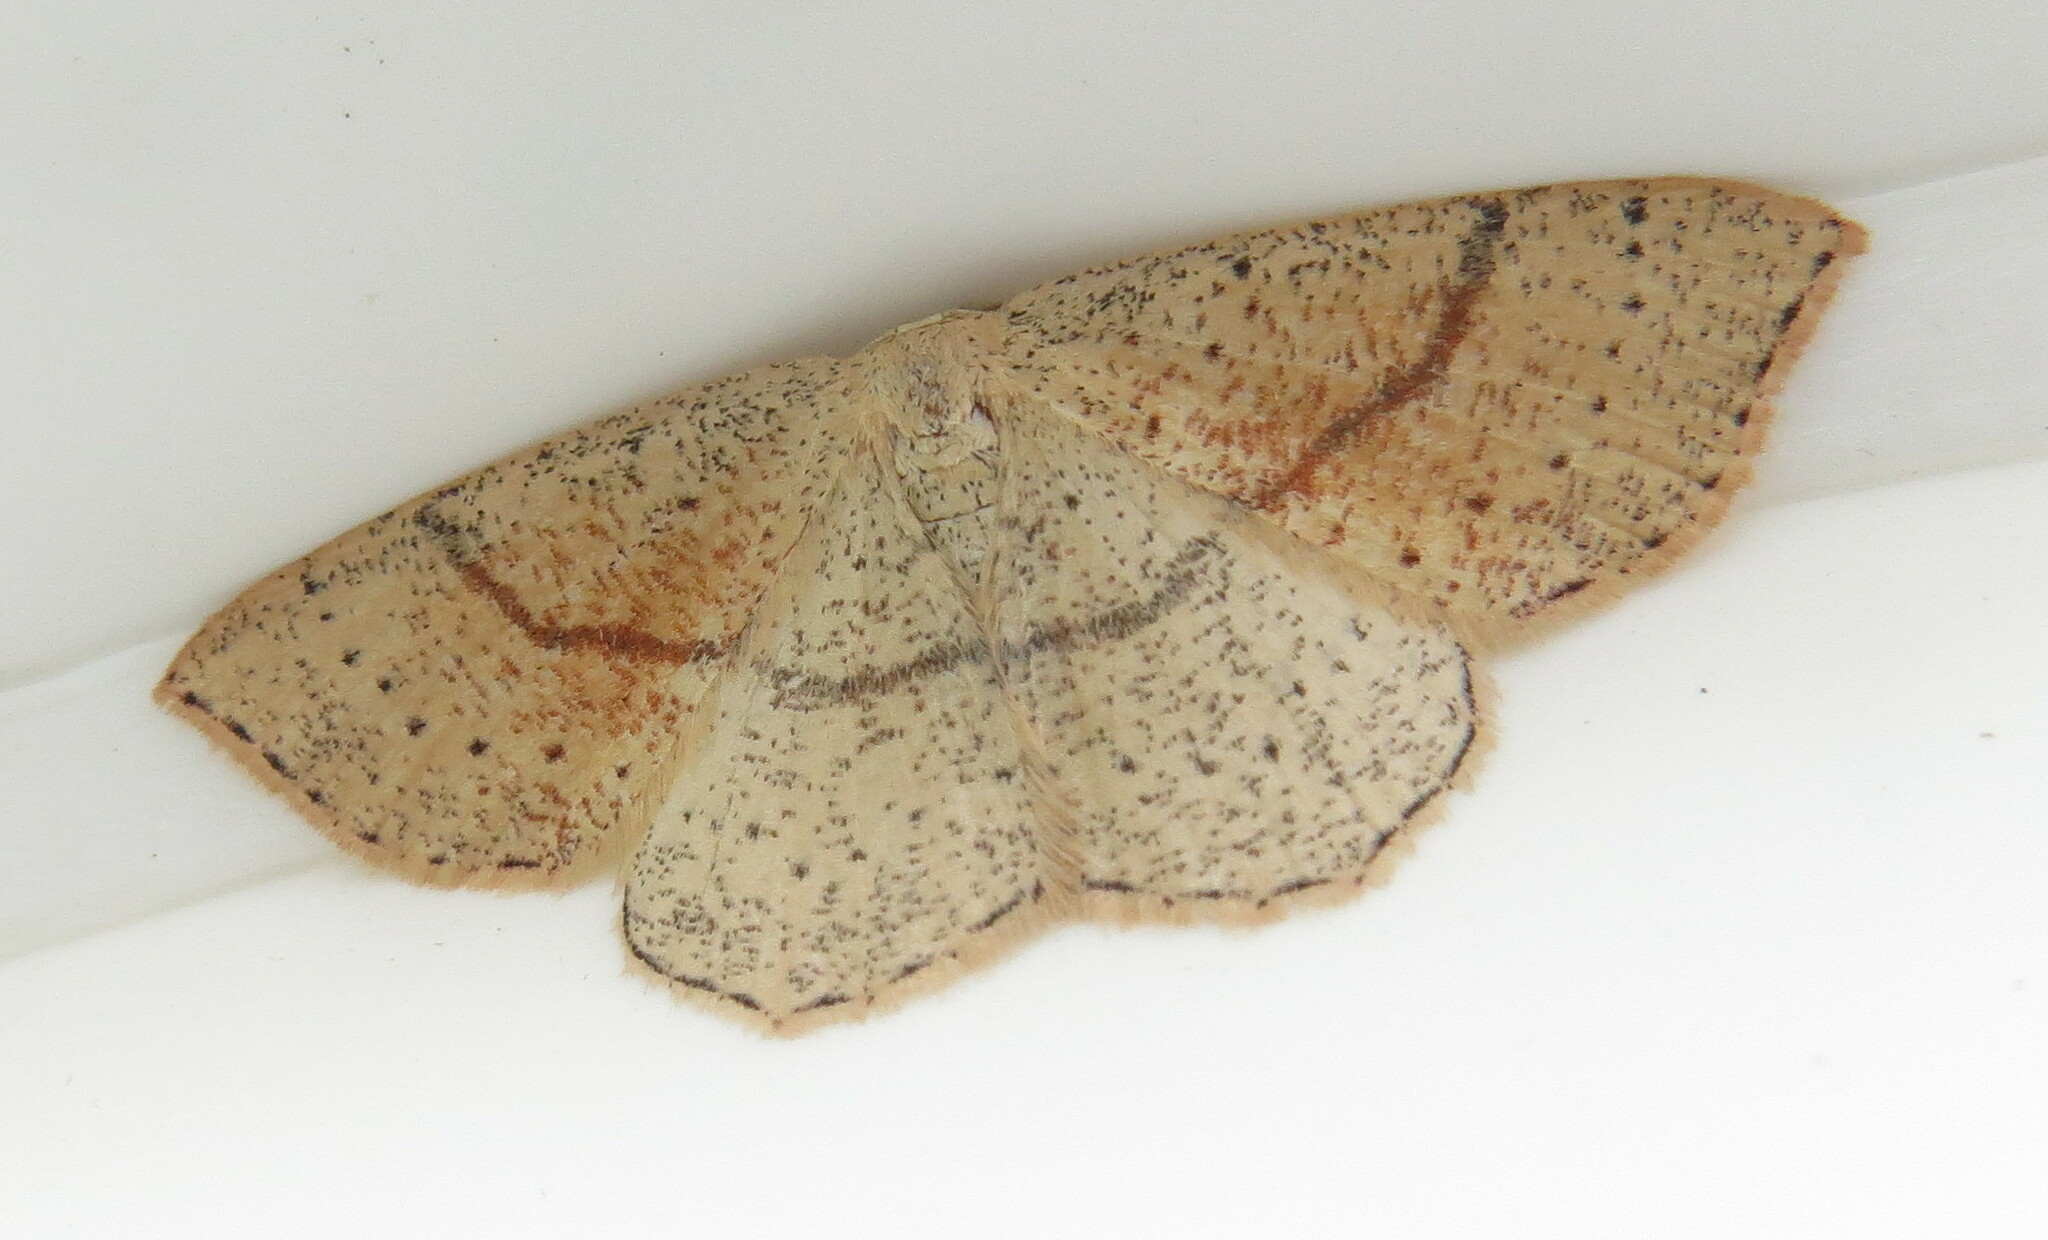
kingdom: Animalia
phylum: Arthropoda
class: Insecta
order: Lepidoptera
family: Geometridae
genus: Cyclophora
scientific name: Cyclophora punctaria
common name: Maiden's blush
